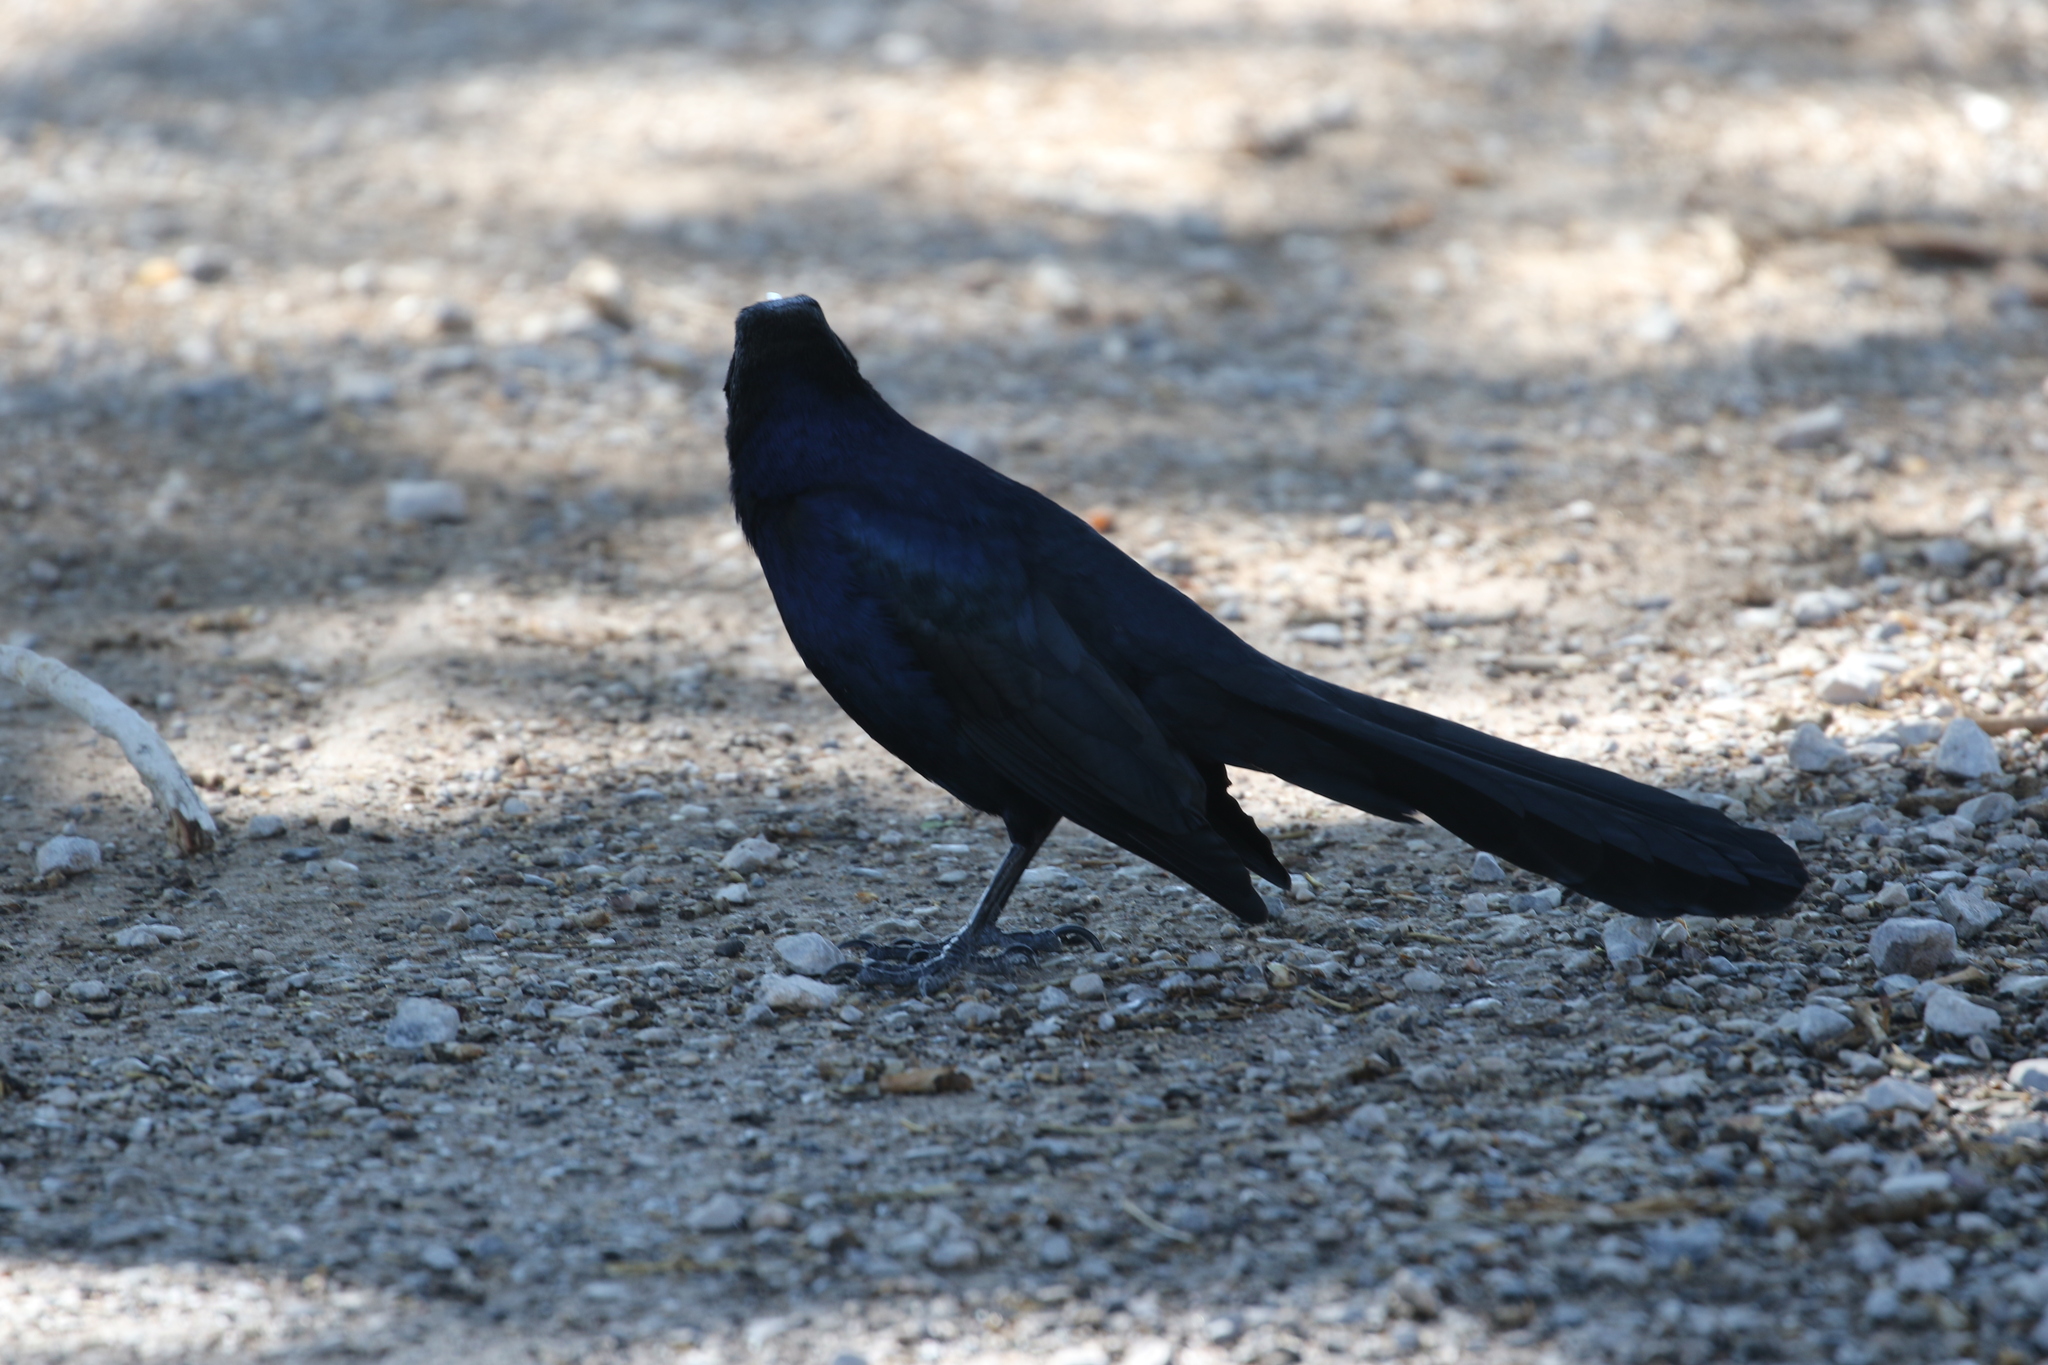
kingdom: Animalia
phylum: Chordata
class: Aves
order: Passeriformes
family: Icteridae
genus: Quiscalus
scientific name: Quiscalus mexicanus
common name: Great-tailed grackle
